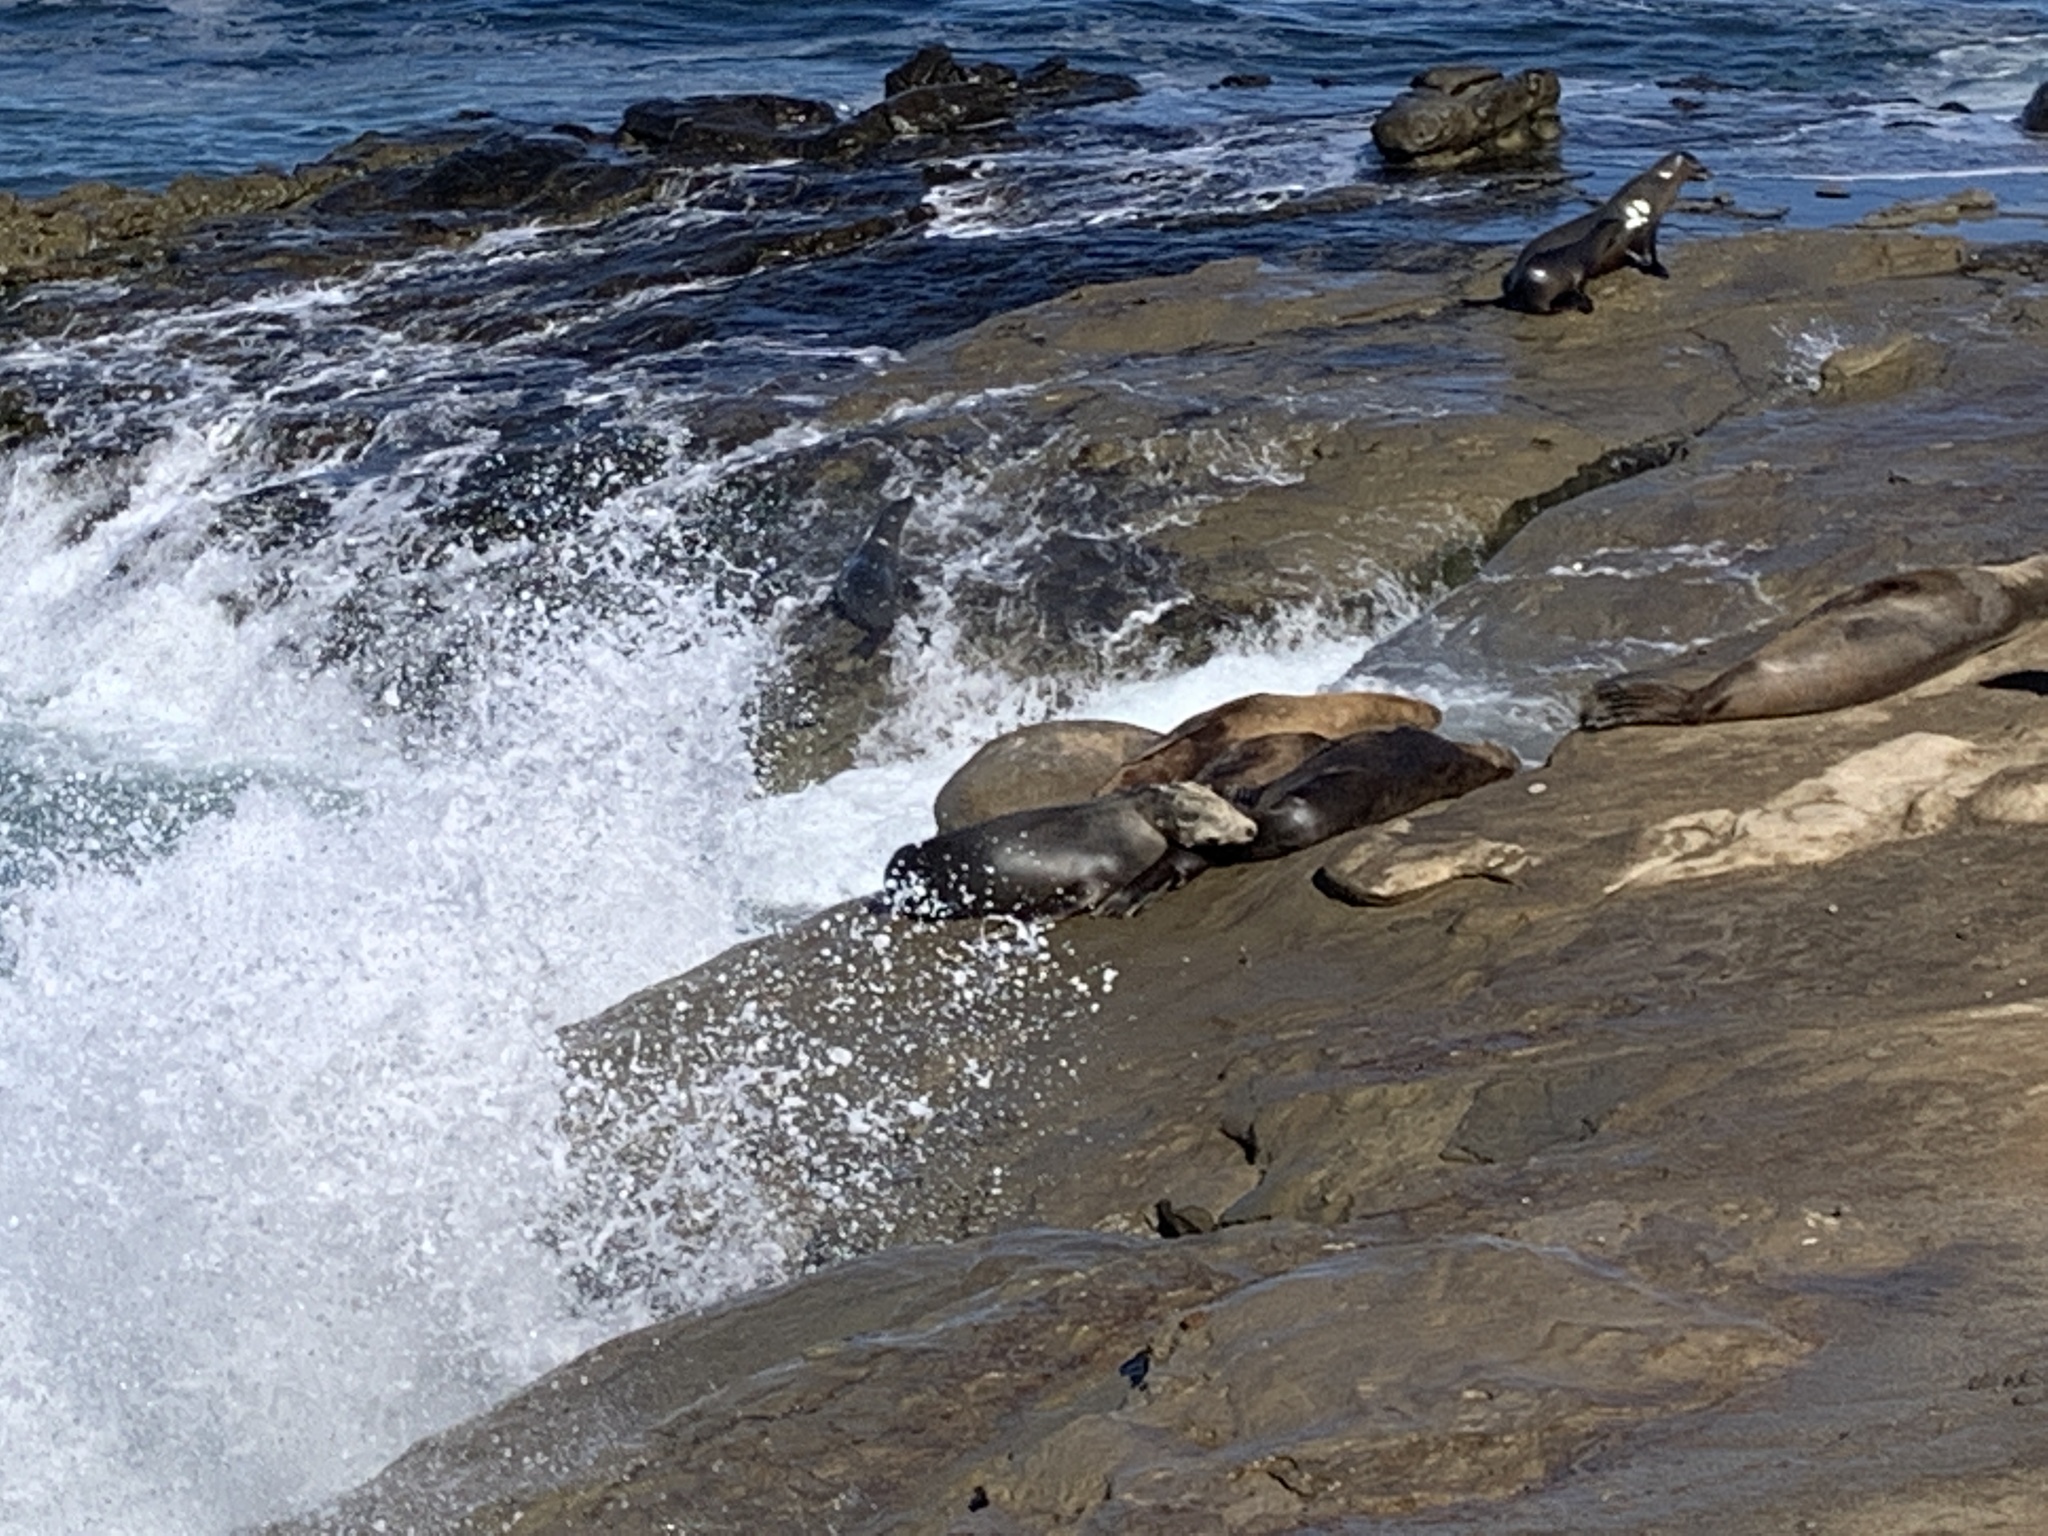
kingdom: Animalia
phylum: Chordata
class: Mammalia
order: Carnivora
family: Otariidae
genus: Zalophus
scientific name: Zalophus californianus
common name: California sea lion
